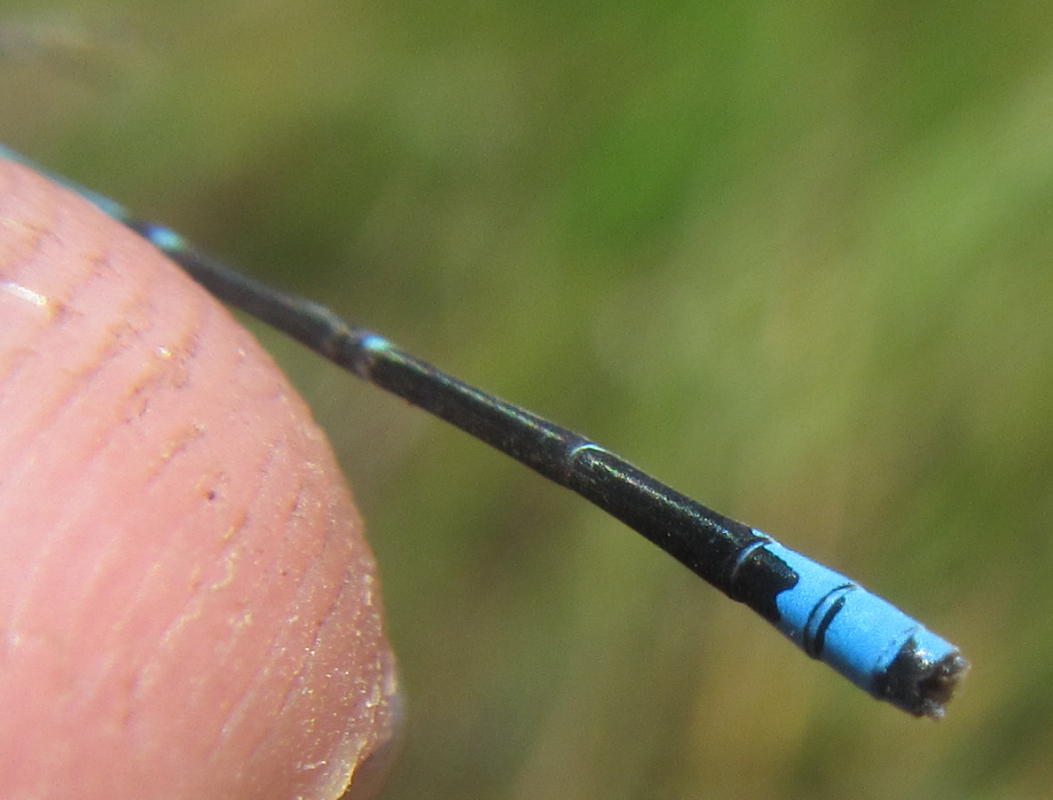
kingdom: Animalia
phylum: Arthropoda
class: Insecta
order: Odonata
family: Coenagrionidae
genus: Azuragrion
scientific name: Azuragrion nigridorsum
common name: Sailing azuret
